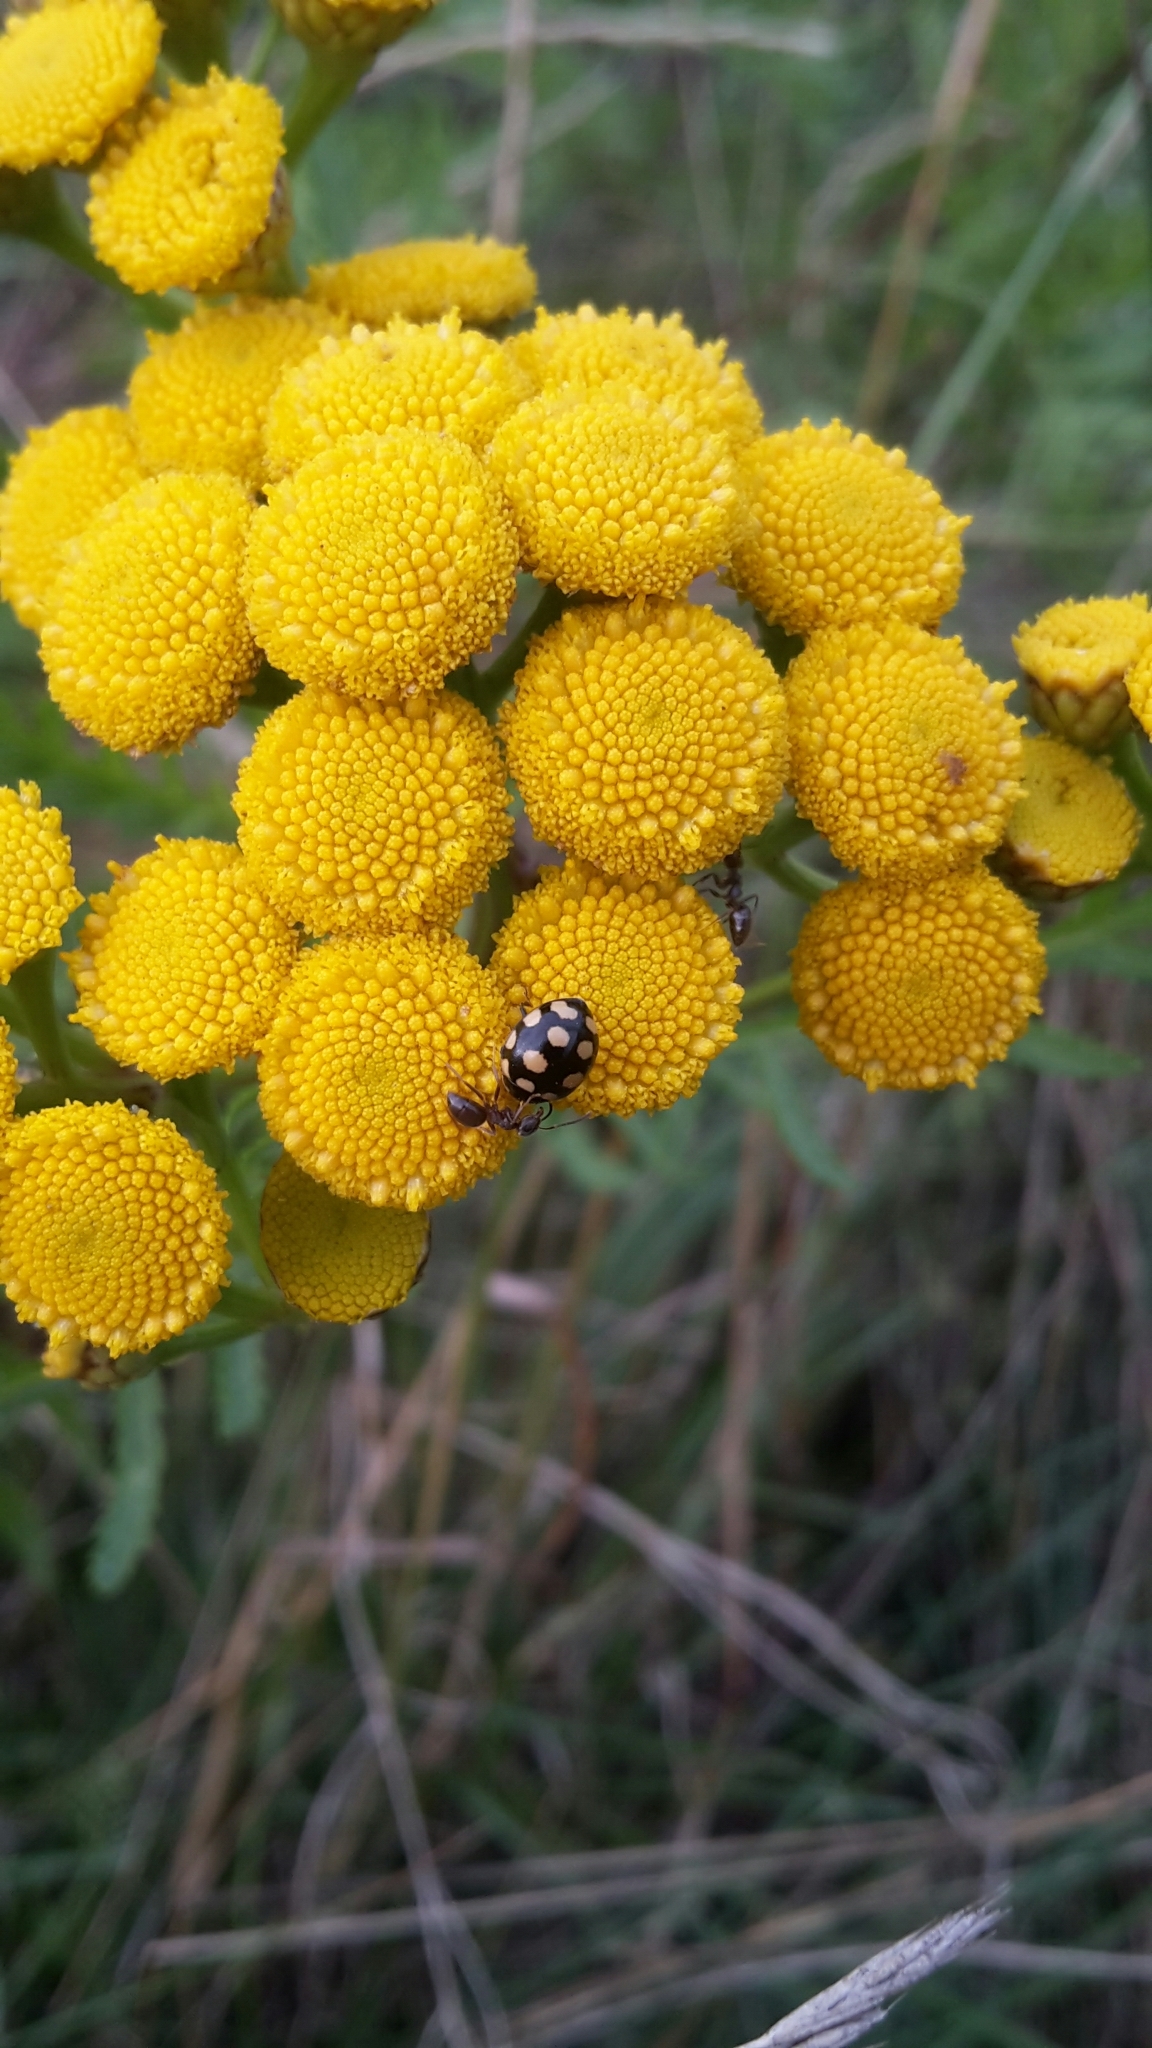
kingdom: Animalia
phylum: Arthropoda
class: Insecta
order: Coleoptera
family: Coccinellidae
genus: Coccinula
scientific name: Coccinula quatuordecimpustulata
